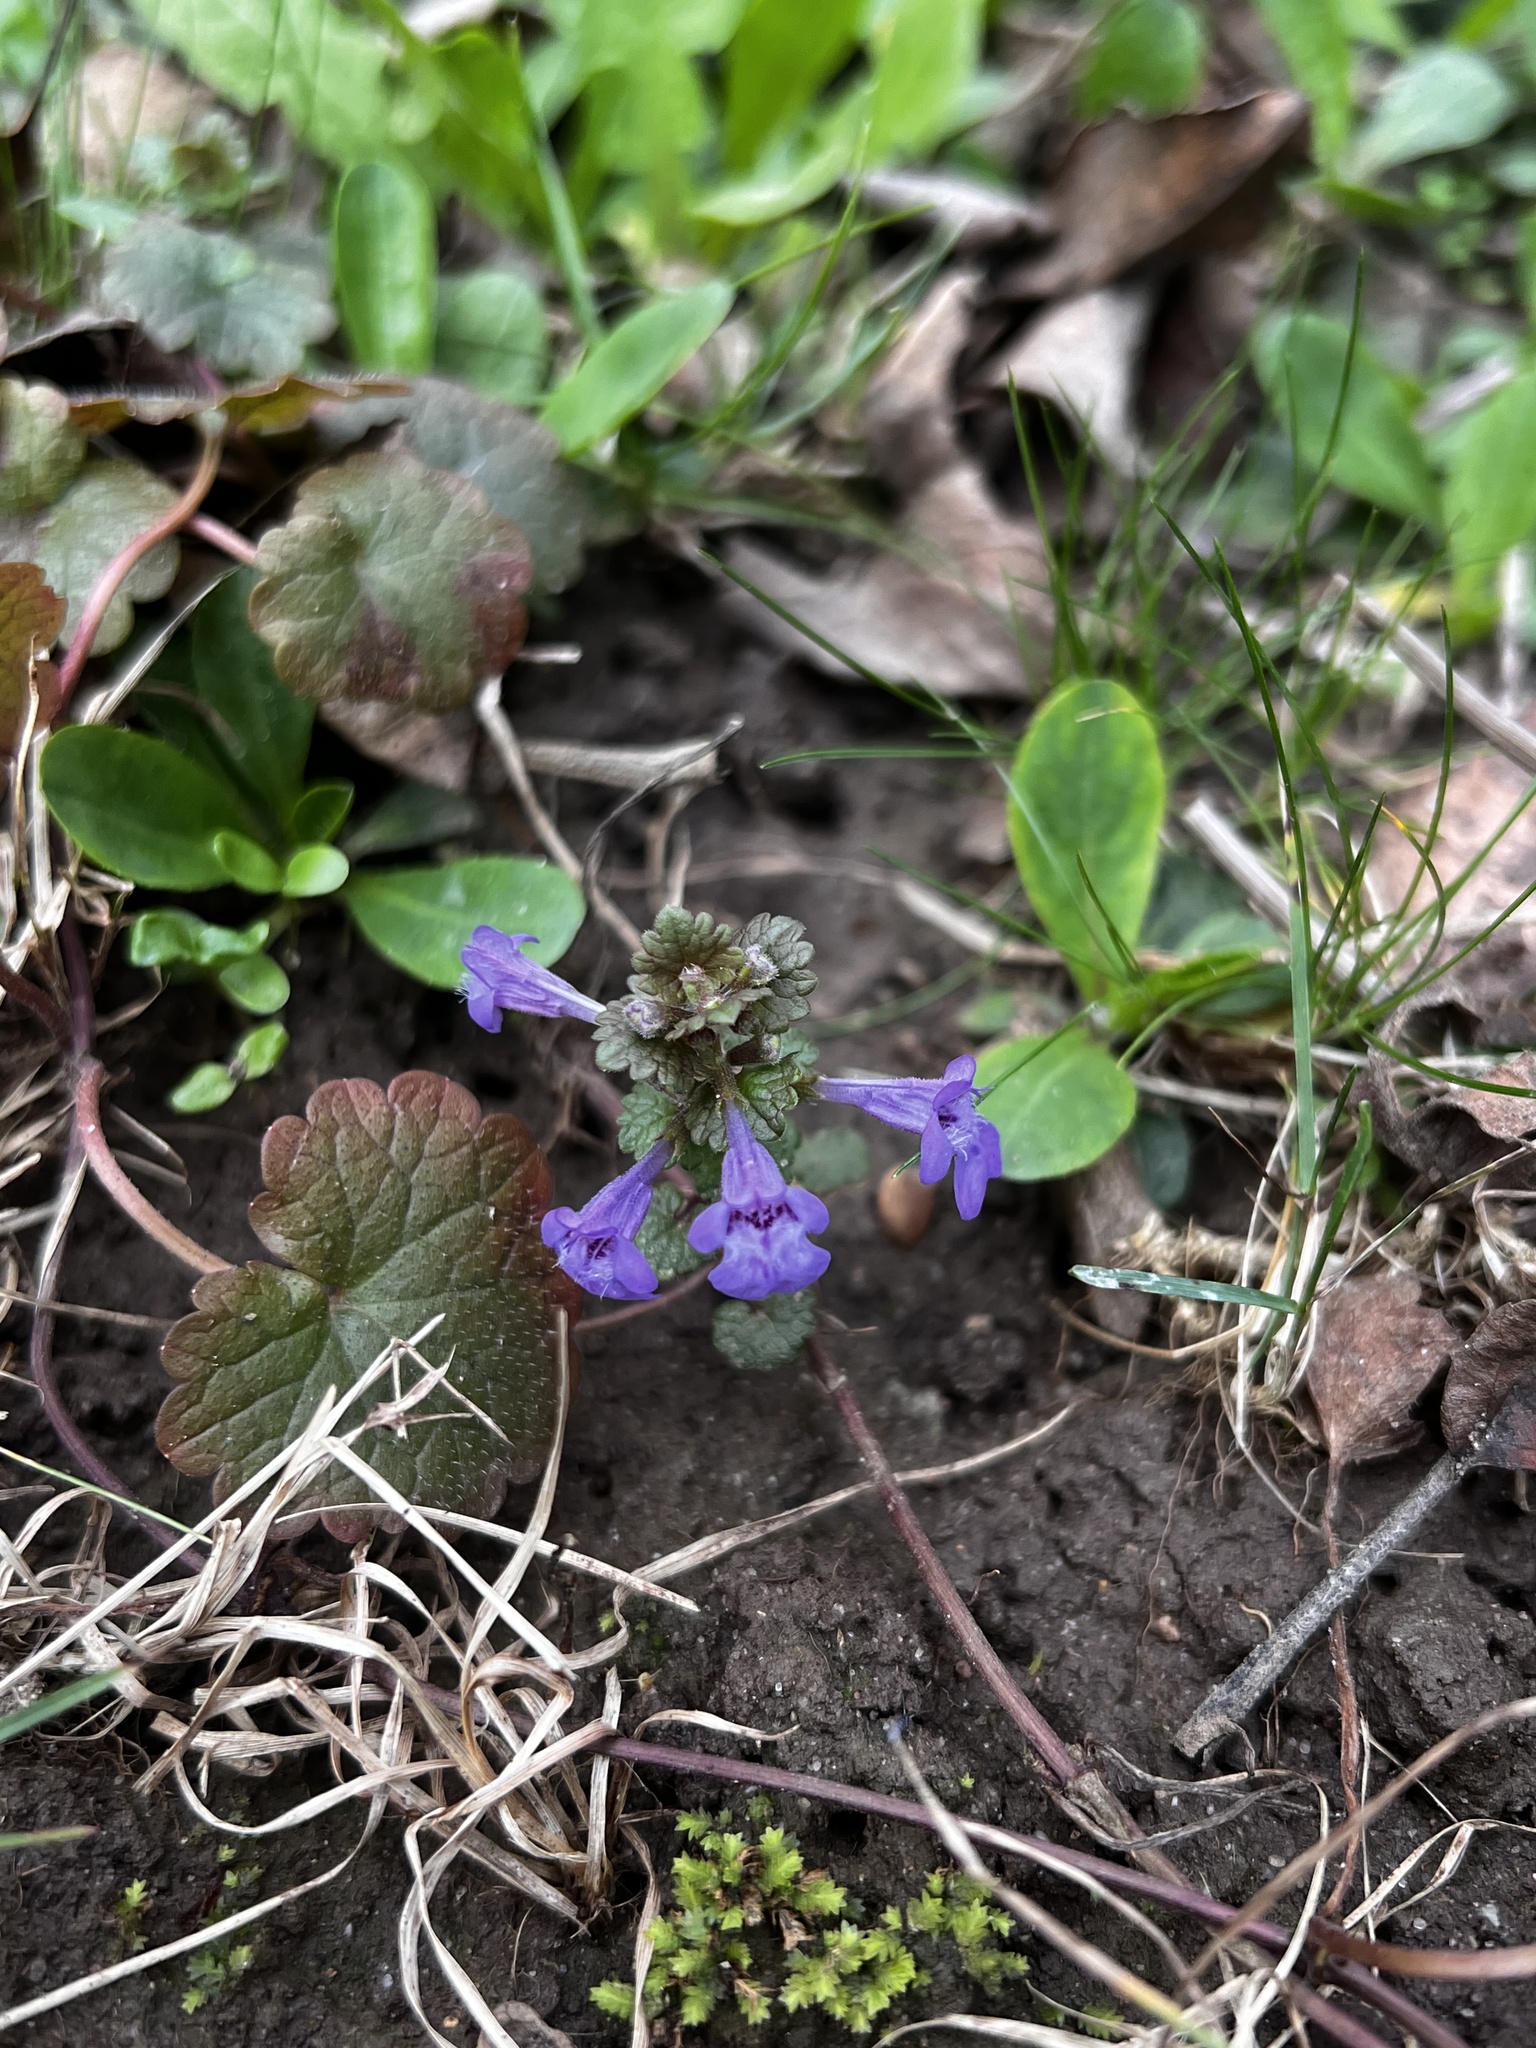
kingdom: Plantae
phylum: Tracheophyta
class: Magnoliopsida
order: Lamiales
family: Lamiaceae
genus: Glechoma
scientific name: Glechoma hederacea
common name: Ground ivy
